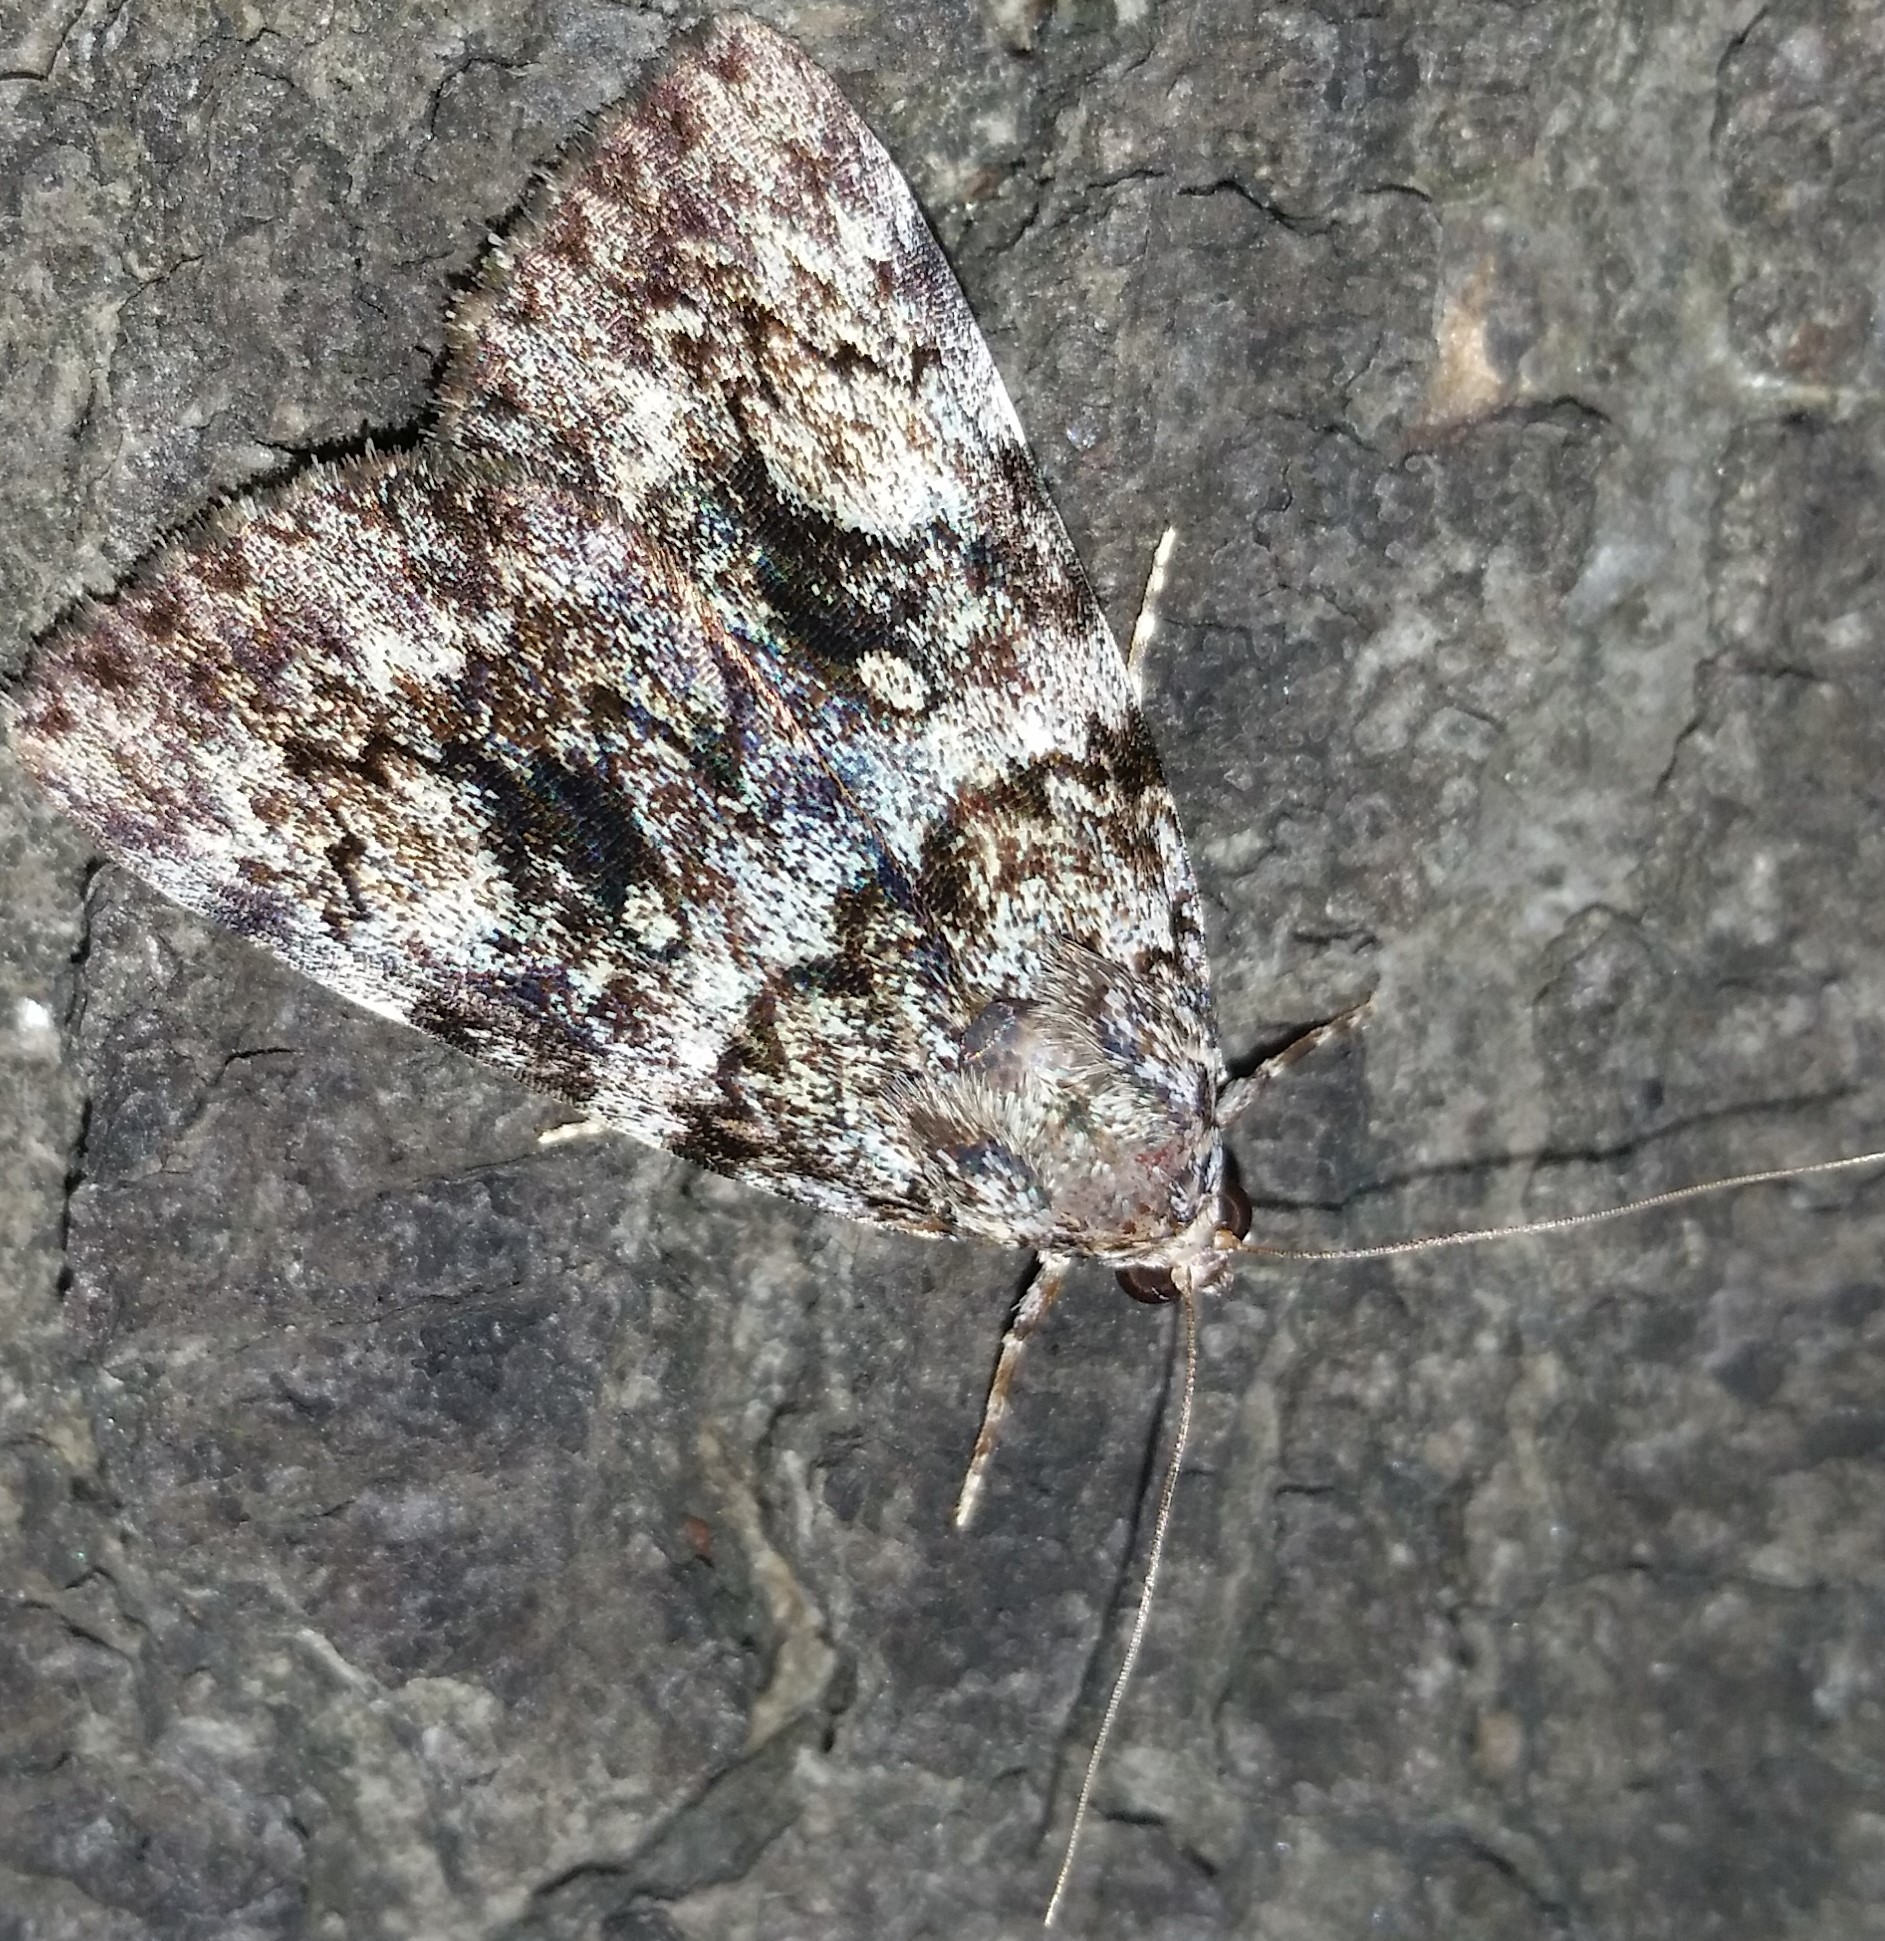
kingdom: Animalia
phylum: Arthropoda
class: Insecta
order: Lepidoptera
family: Erebidae
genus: Catocala
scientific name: Catocala lineella
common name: Little lined underwing
